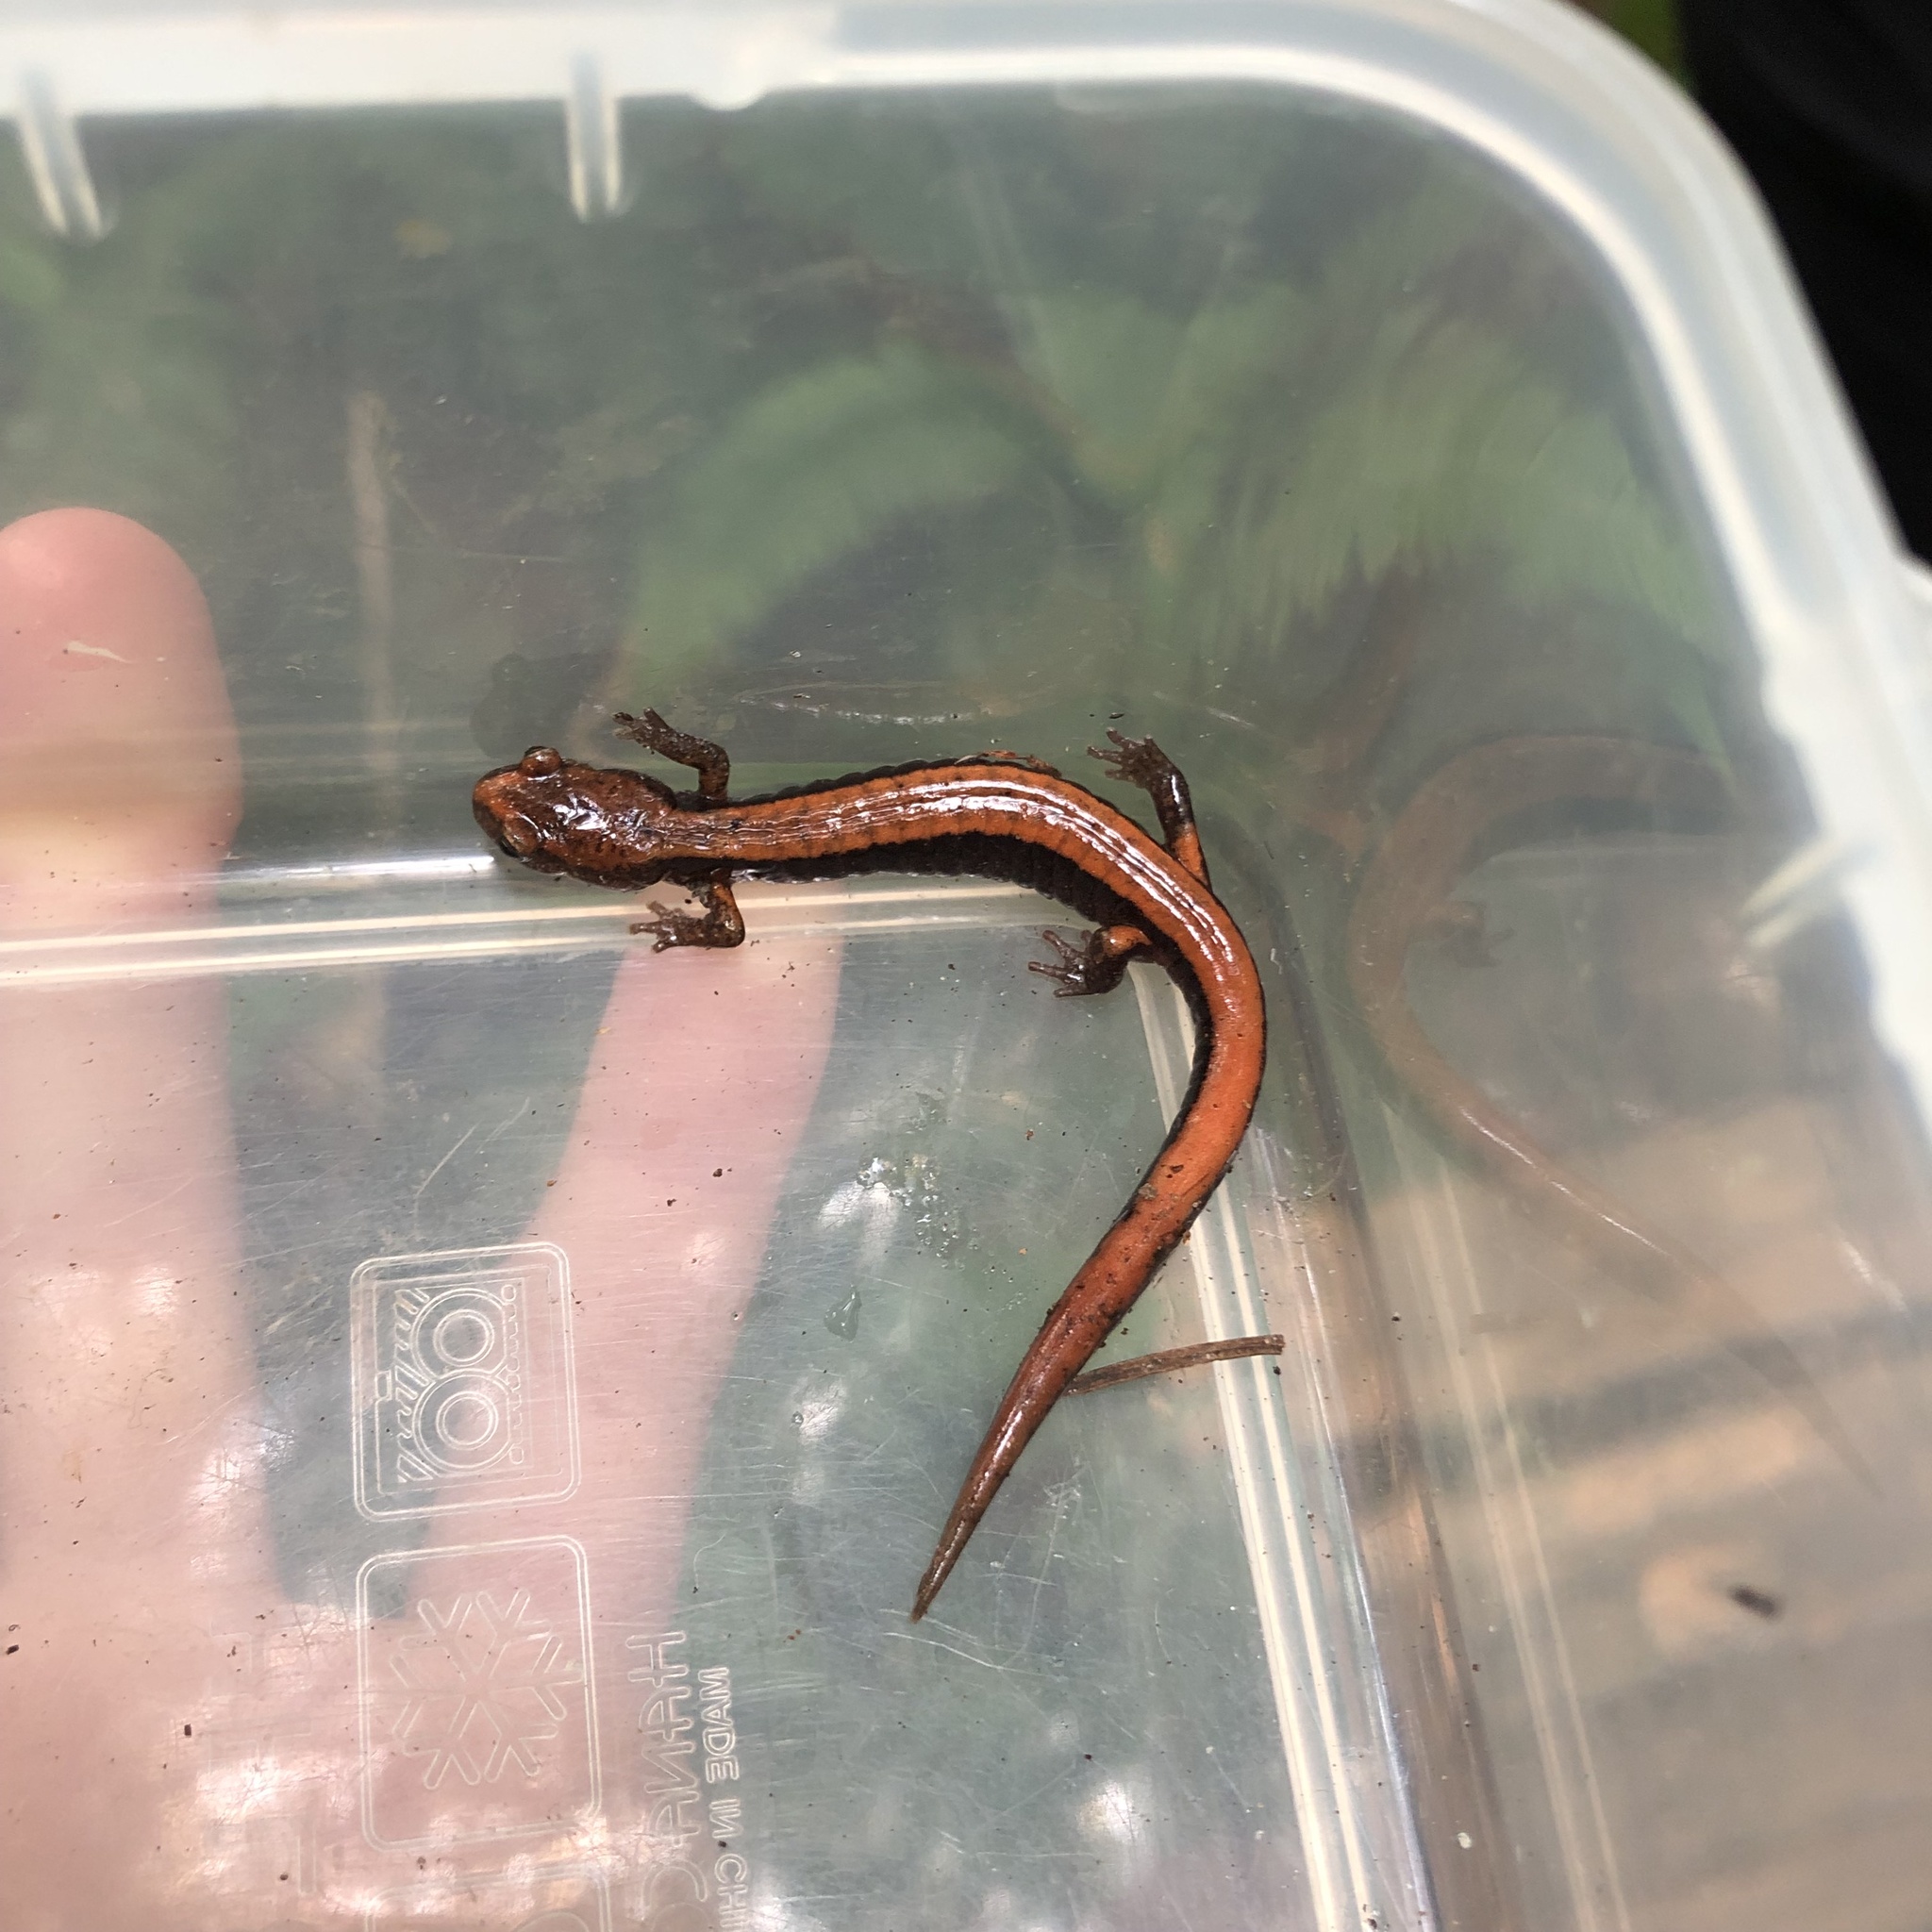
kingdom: Animalia
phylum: Chordata
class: Amphibia
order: Caudata
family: Plethodontidae
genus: Plethodon
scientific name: Plethodon vehiculum
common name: Western red-backed salamander
